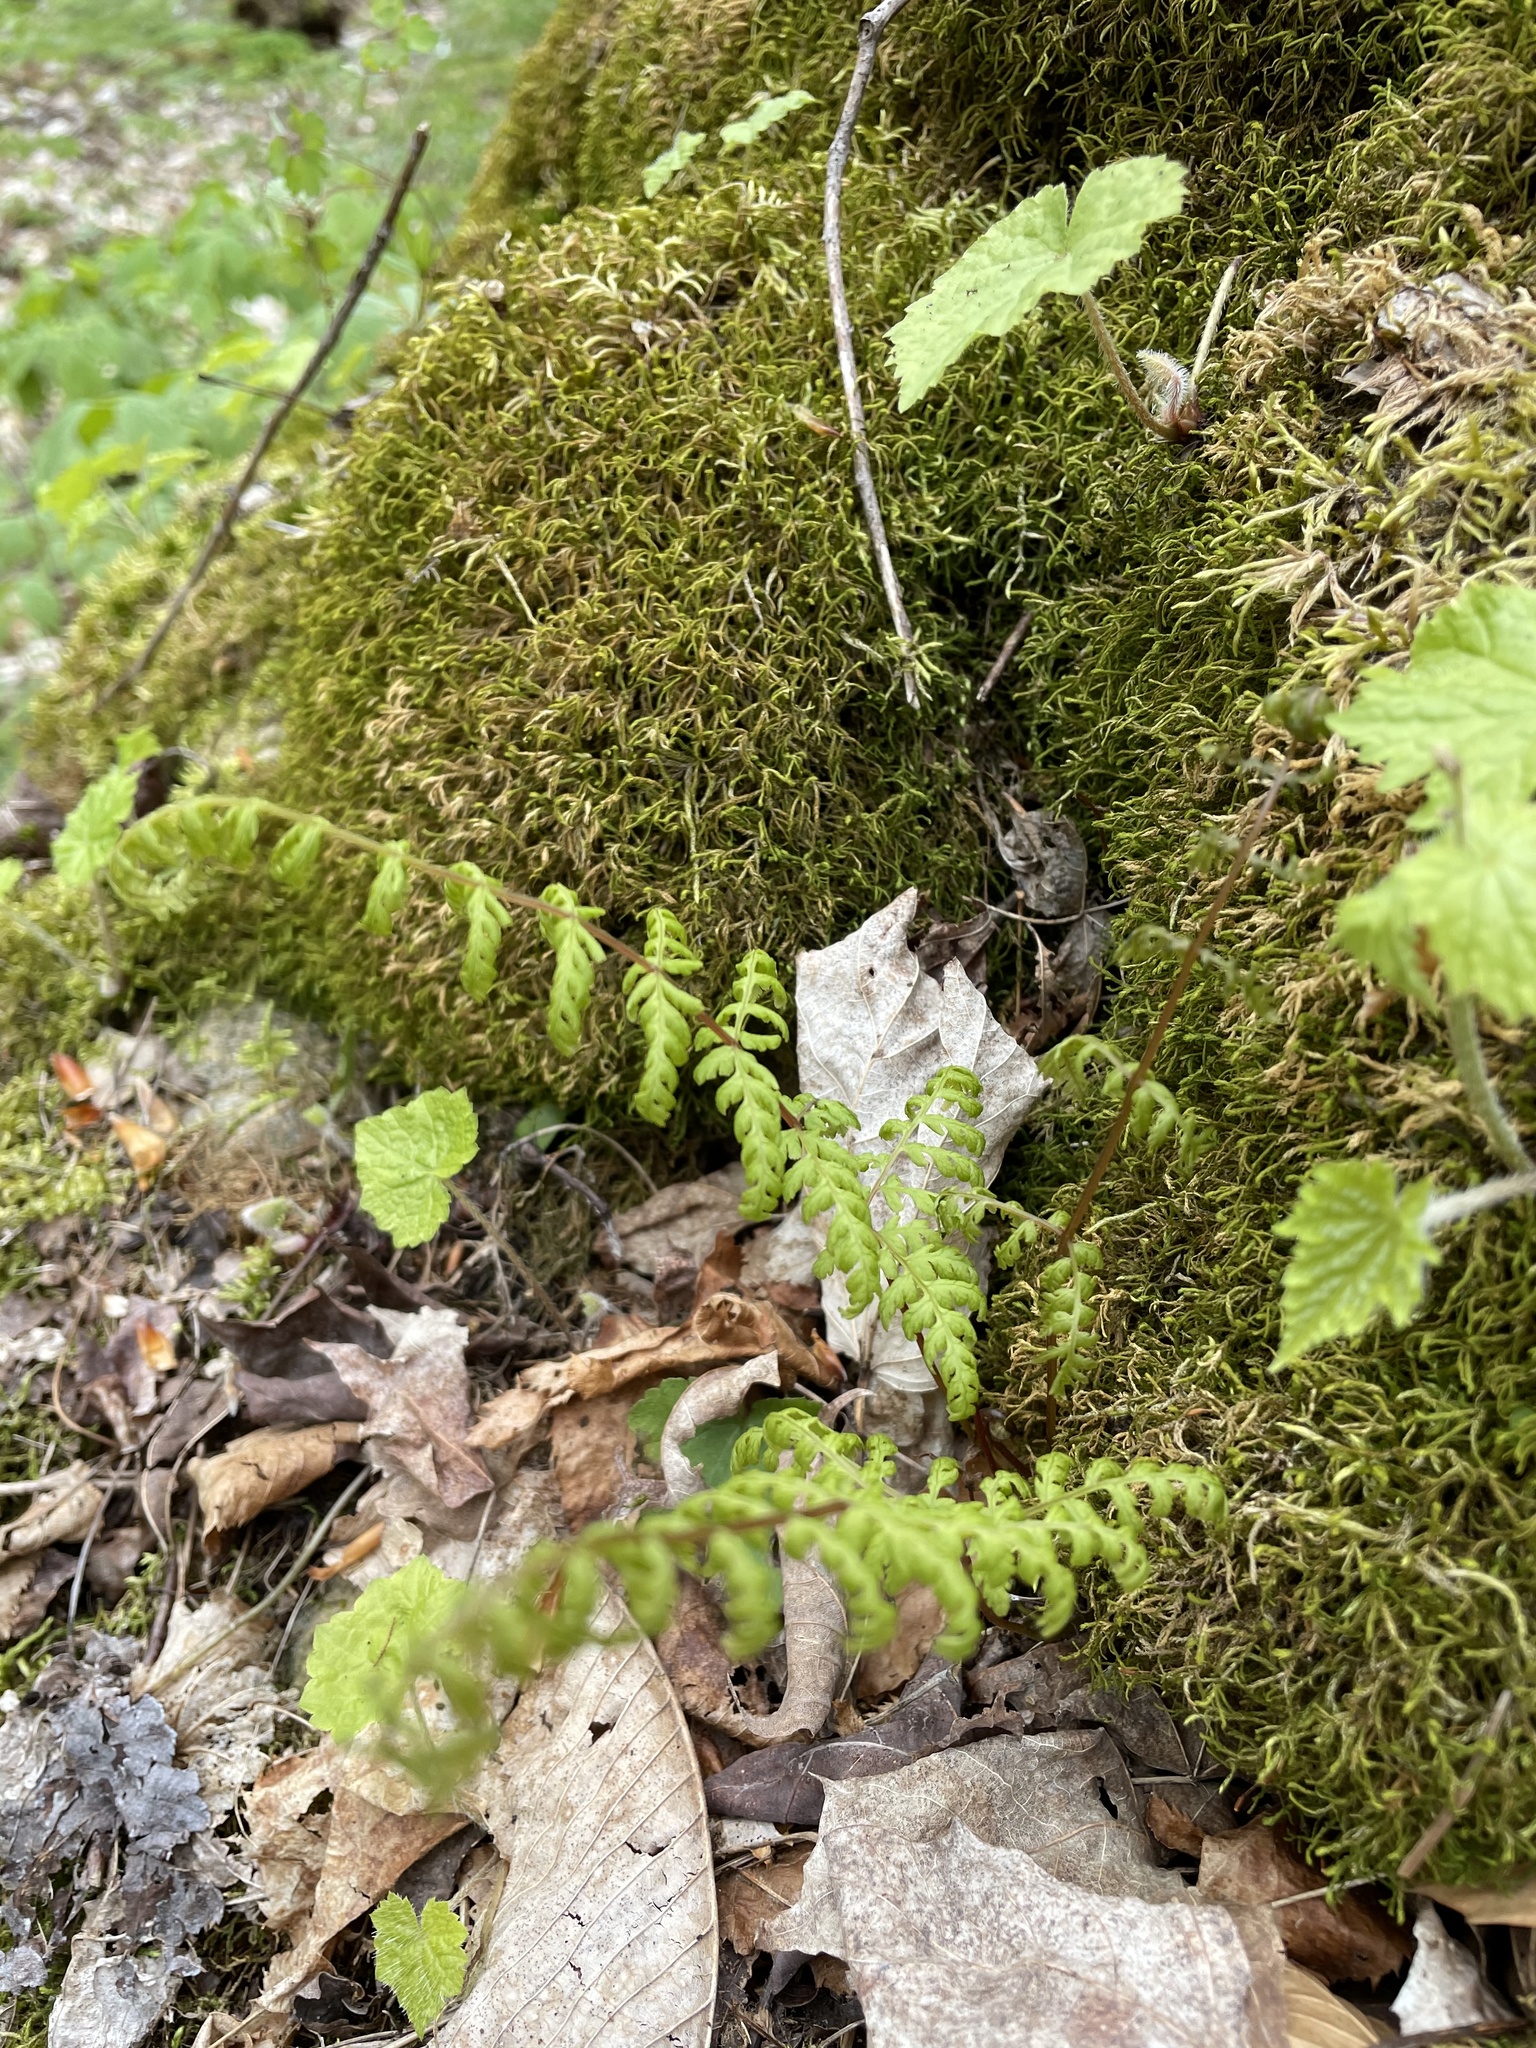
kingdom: Plantae
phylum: Tracheophyta
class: Polypodiopsida
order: Polypodiales
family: Cystopteridaceae
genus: Cystopteris
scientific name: Cystopteris bulbifera
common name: Bulblet bladder fern
